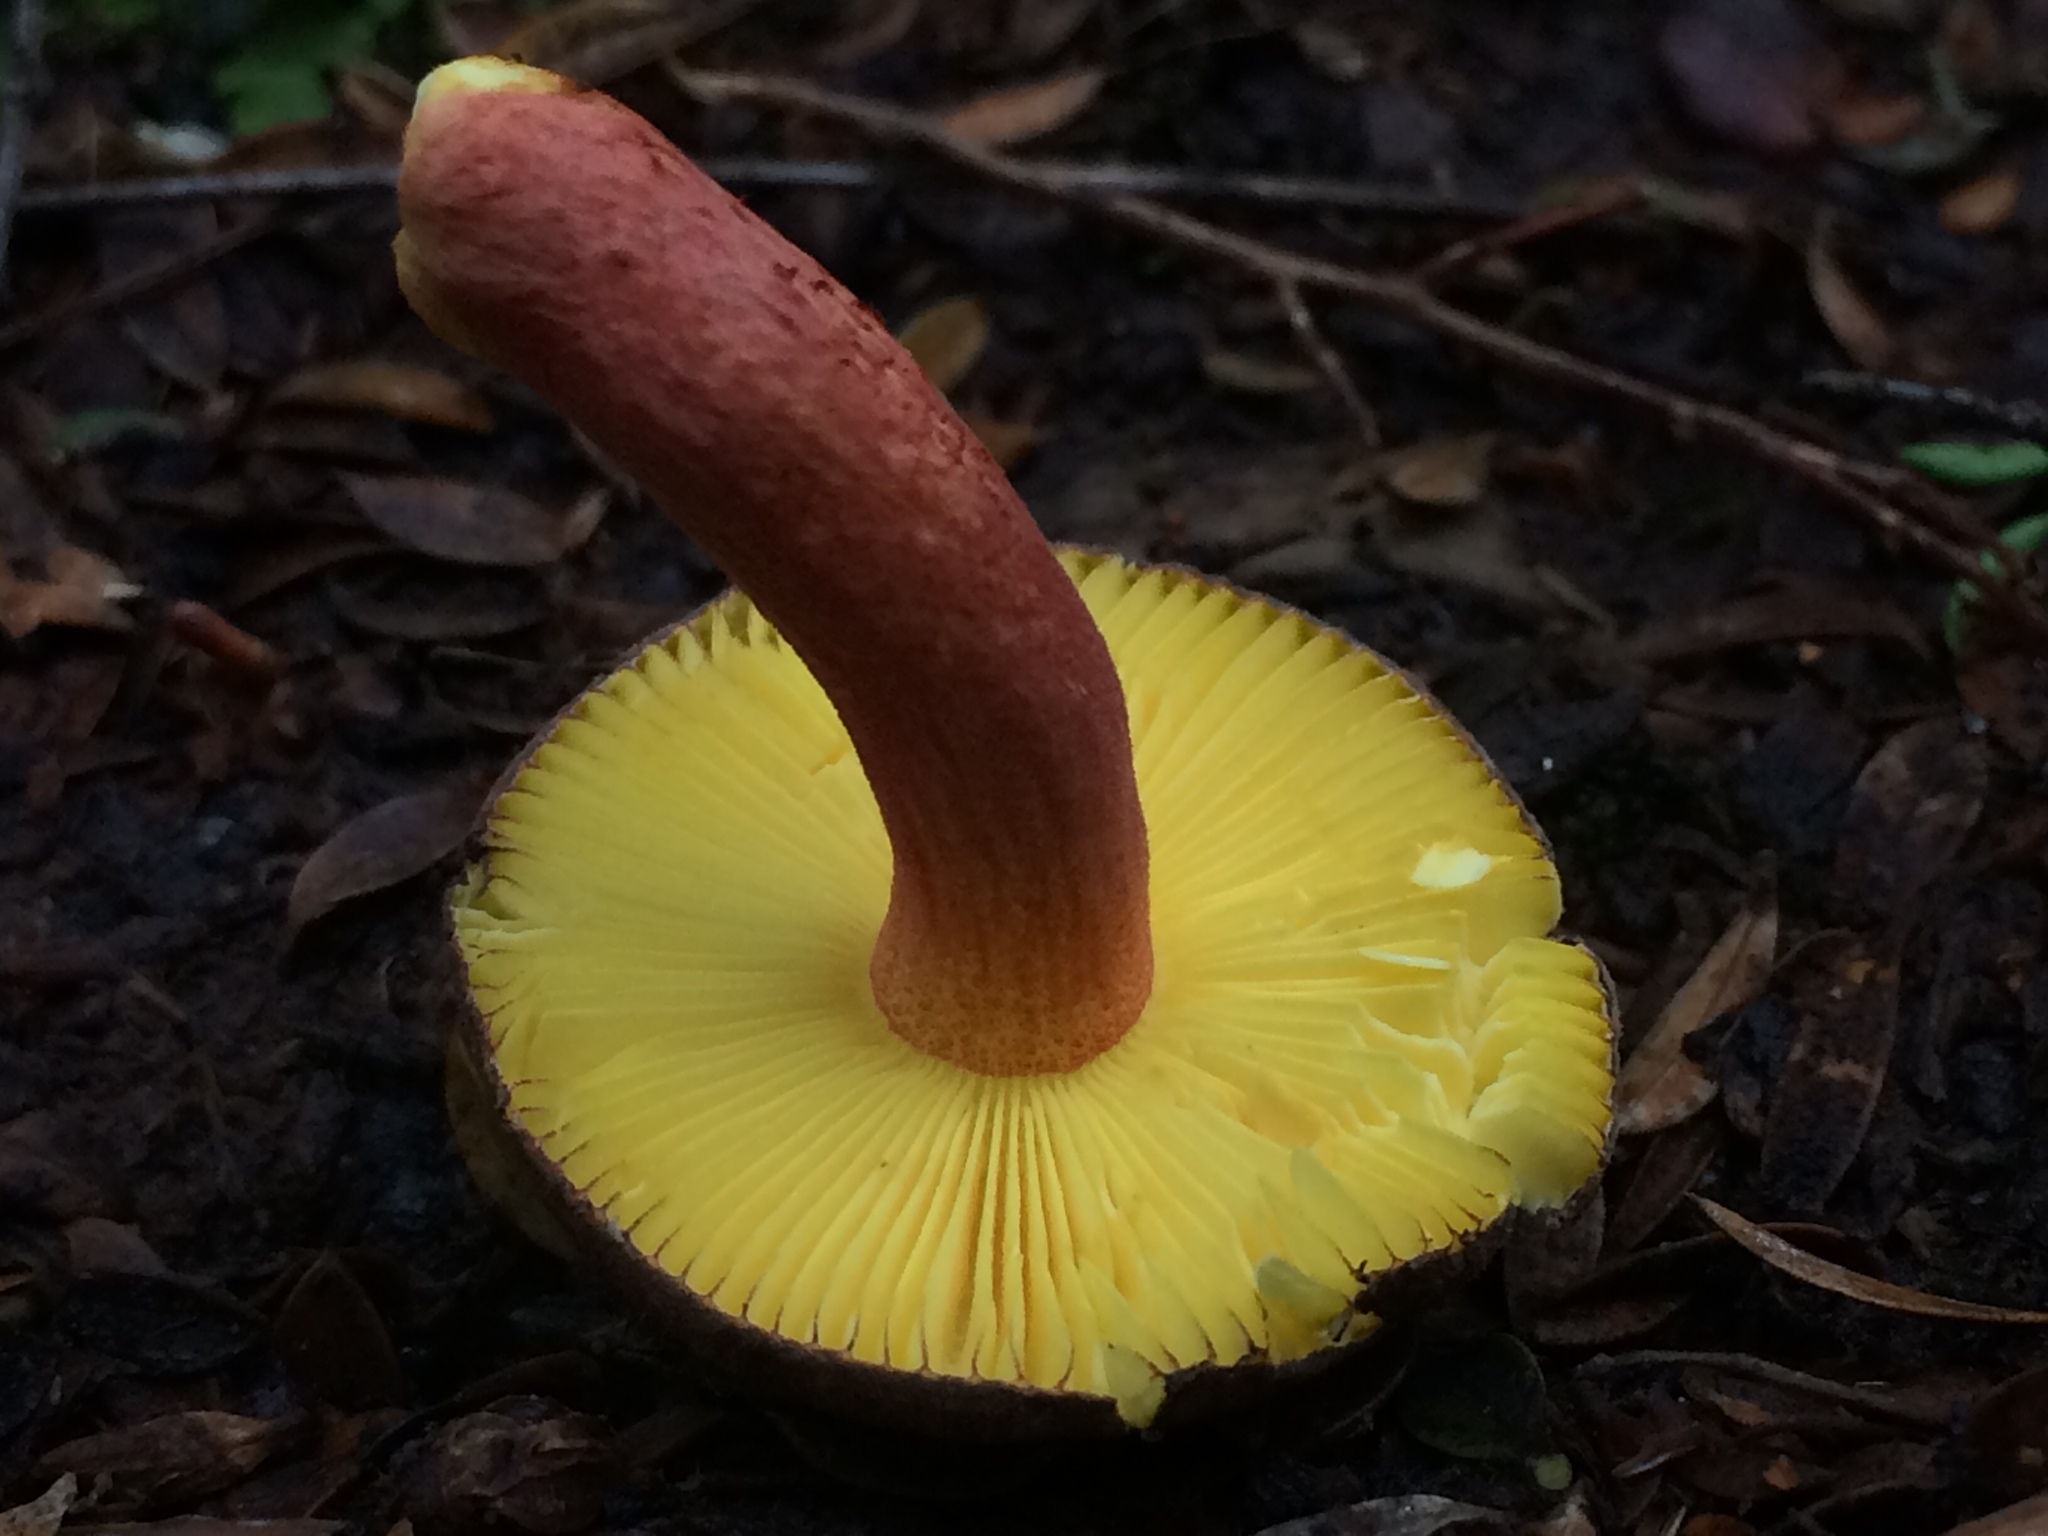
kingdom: Fungi
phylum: Basidiomycota
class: Agaricomycetes
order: Russulales
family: Russulaceae
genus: Russula
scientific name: Russula tricholomopsis
